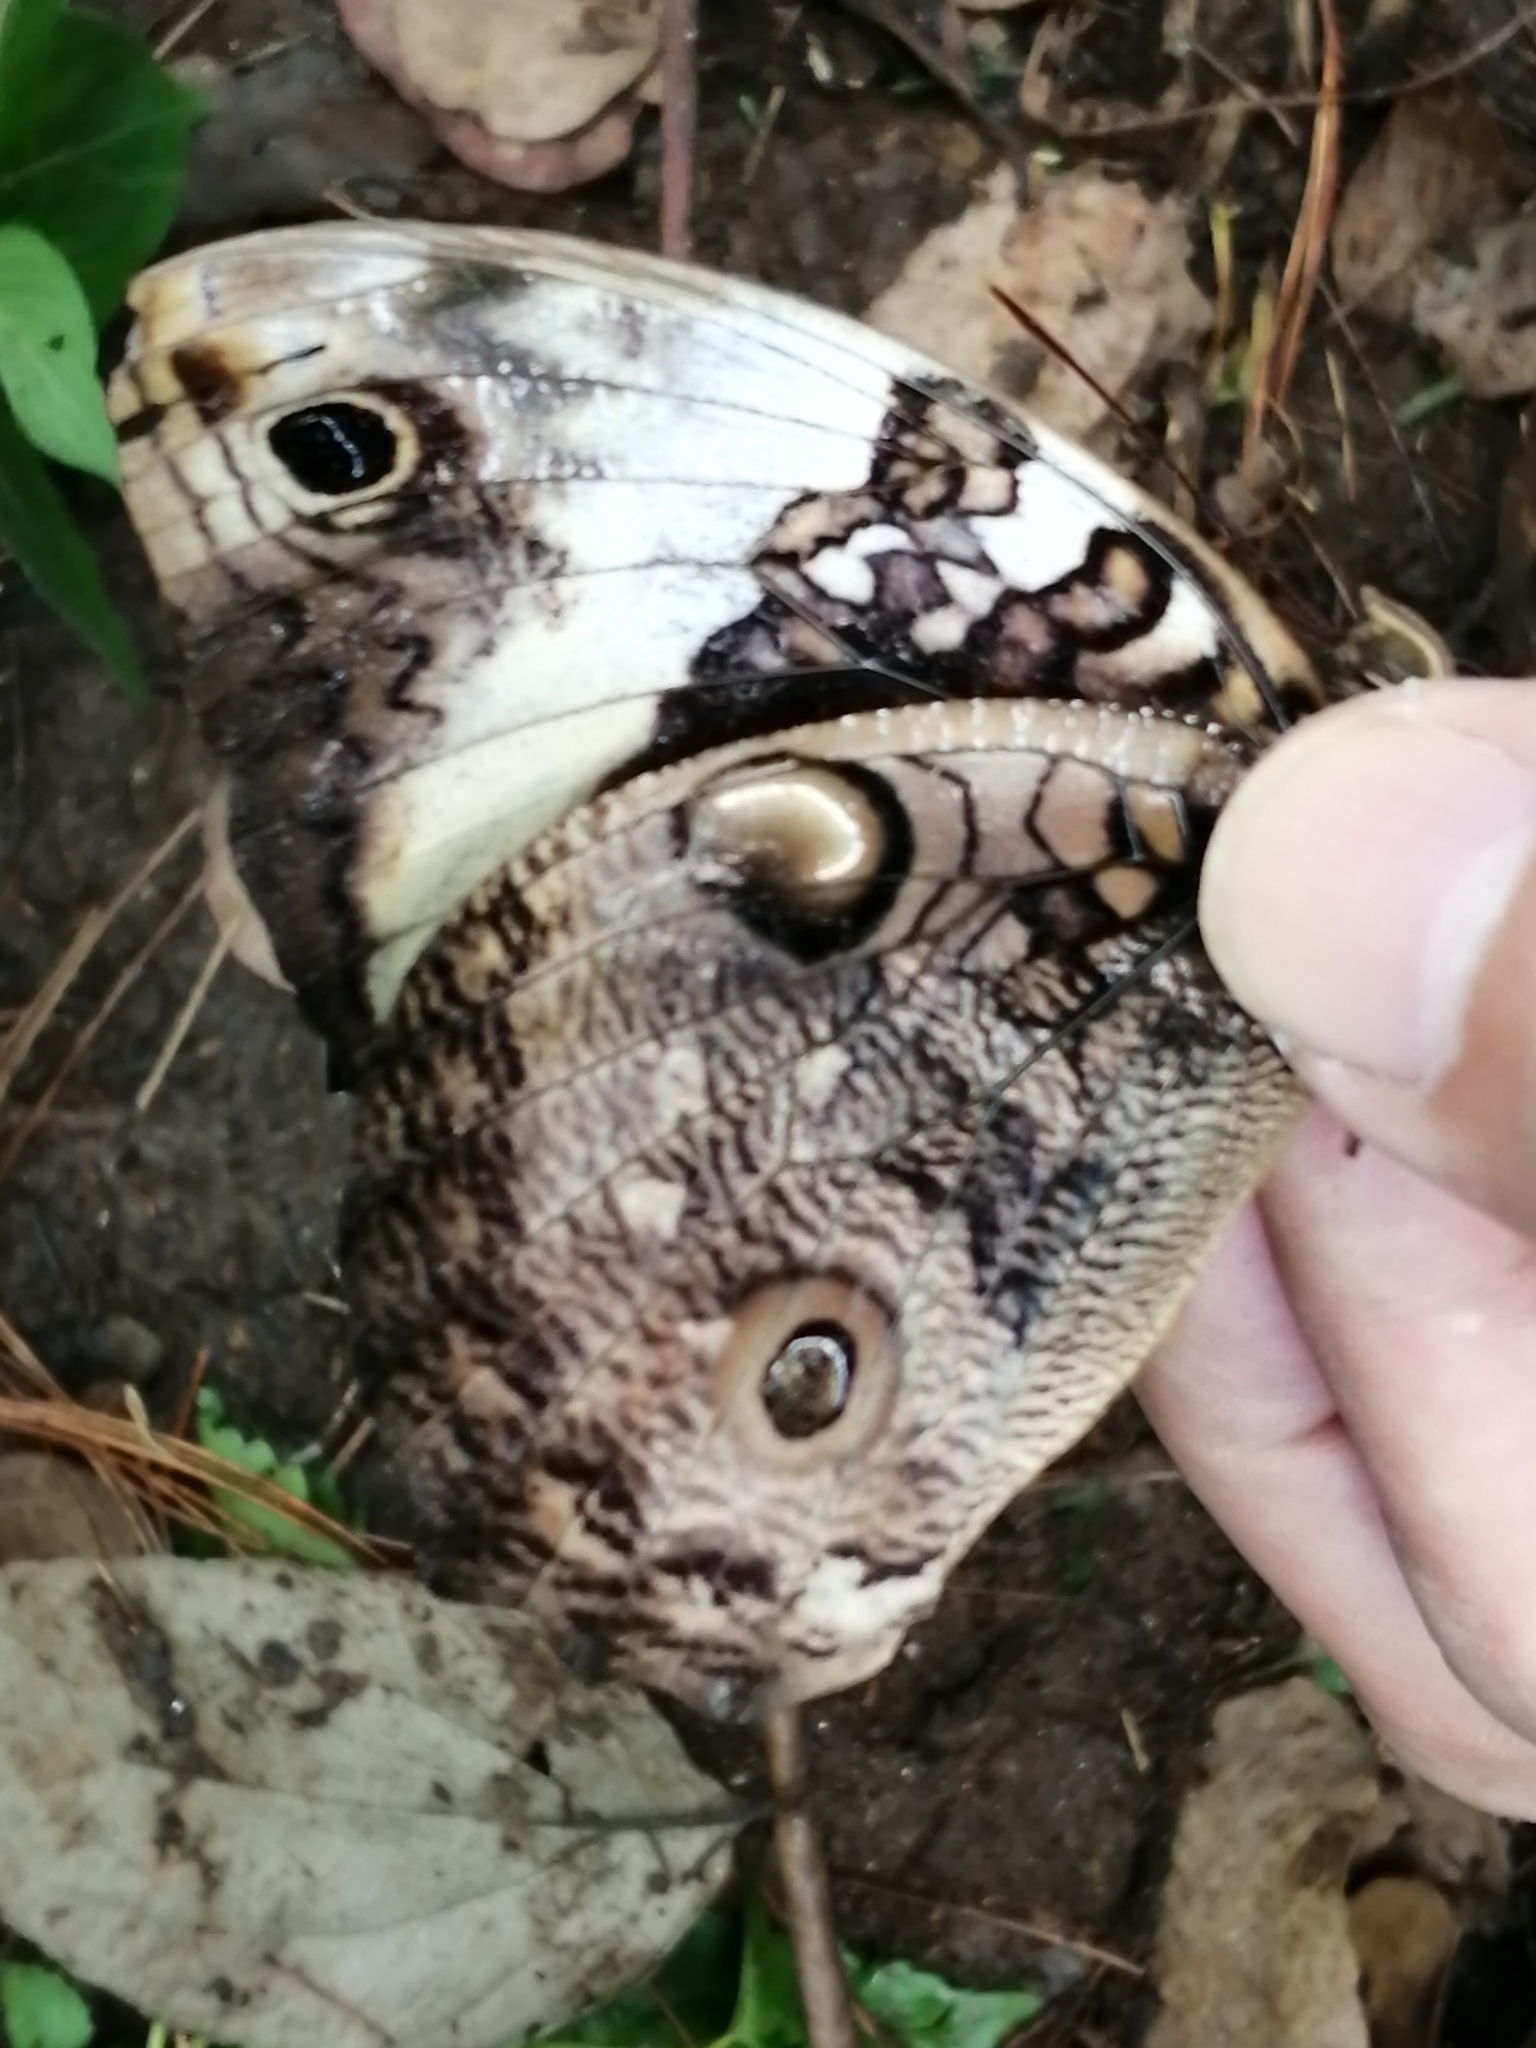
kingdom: Animalia
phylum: Arthropoda
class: Insecta
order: Lepidoptera
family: Nymphalidae
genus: Opsiphanes
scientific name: Opsiphanes quiteria
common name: Scalloped owlet
